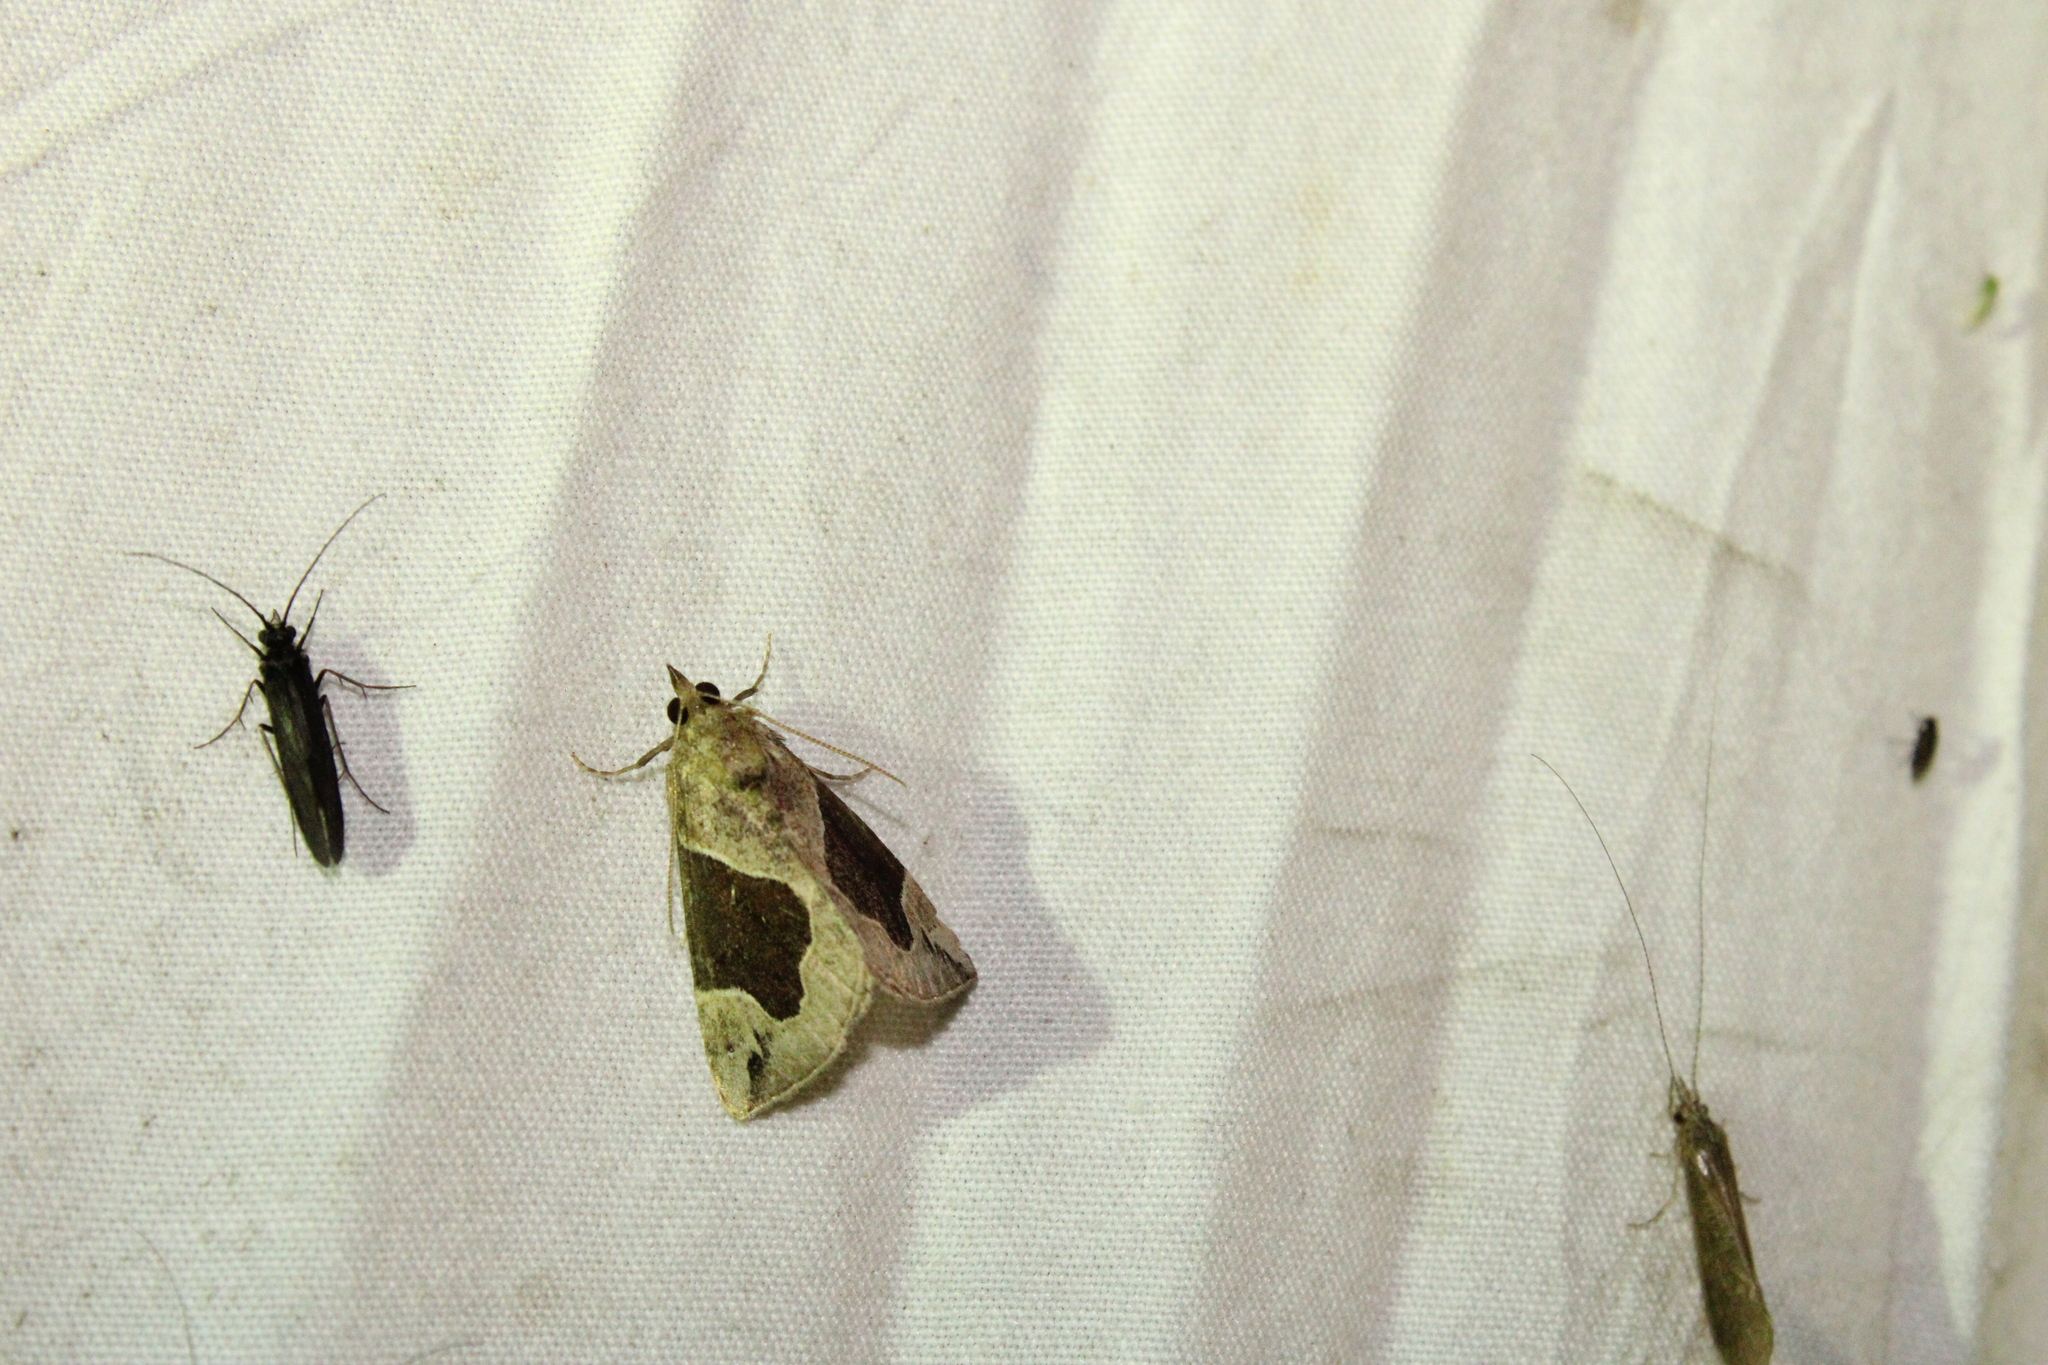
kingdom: Animalia
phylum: Arthropoda
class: Insecta
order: Lepidoptera
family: Erebidae
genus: Hypena
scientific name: Hypena manalis
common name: Flowing-line bomolocha moth
